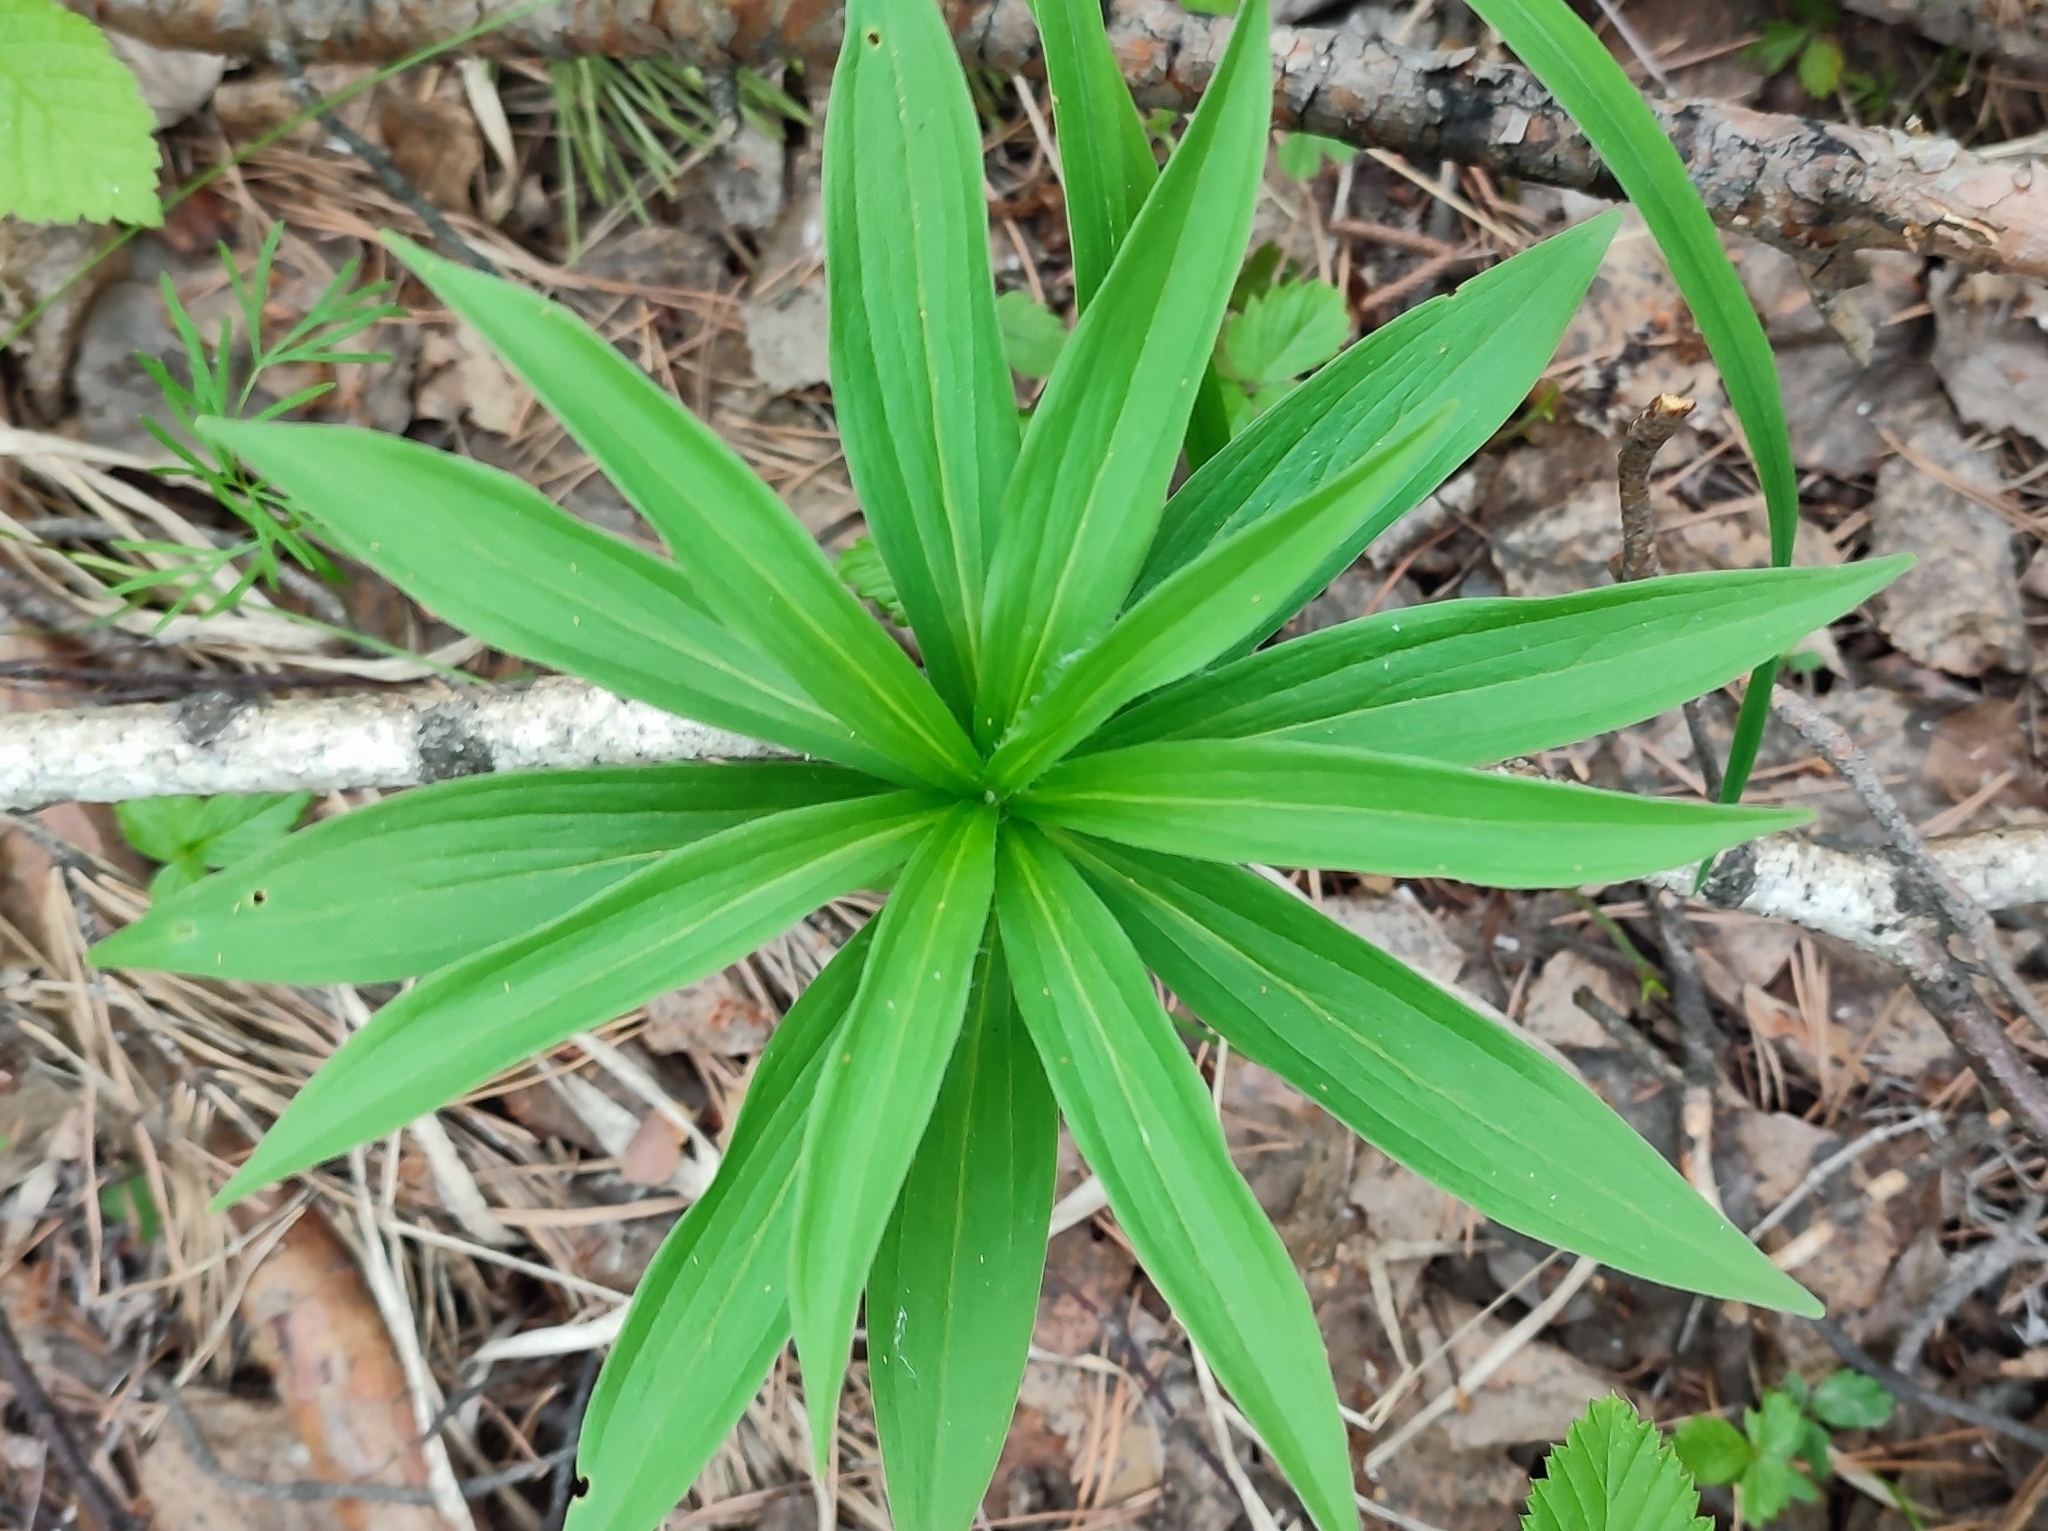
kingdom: Plantae
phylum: Tracheophyta
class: Liliopsida
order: Liliales
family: Liliaceae
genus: Lilium
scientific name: Lilium martagon
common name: Martagon lily
